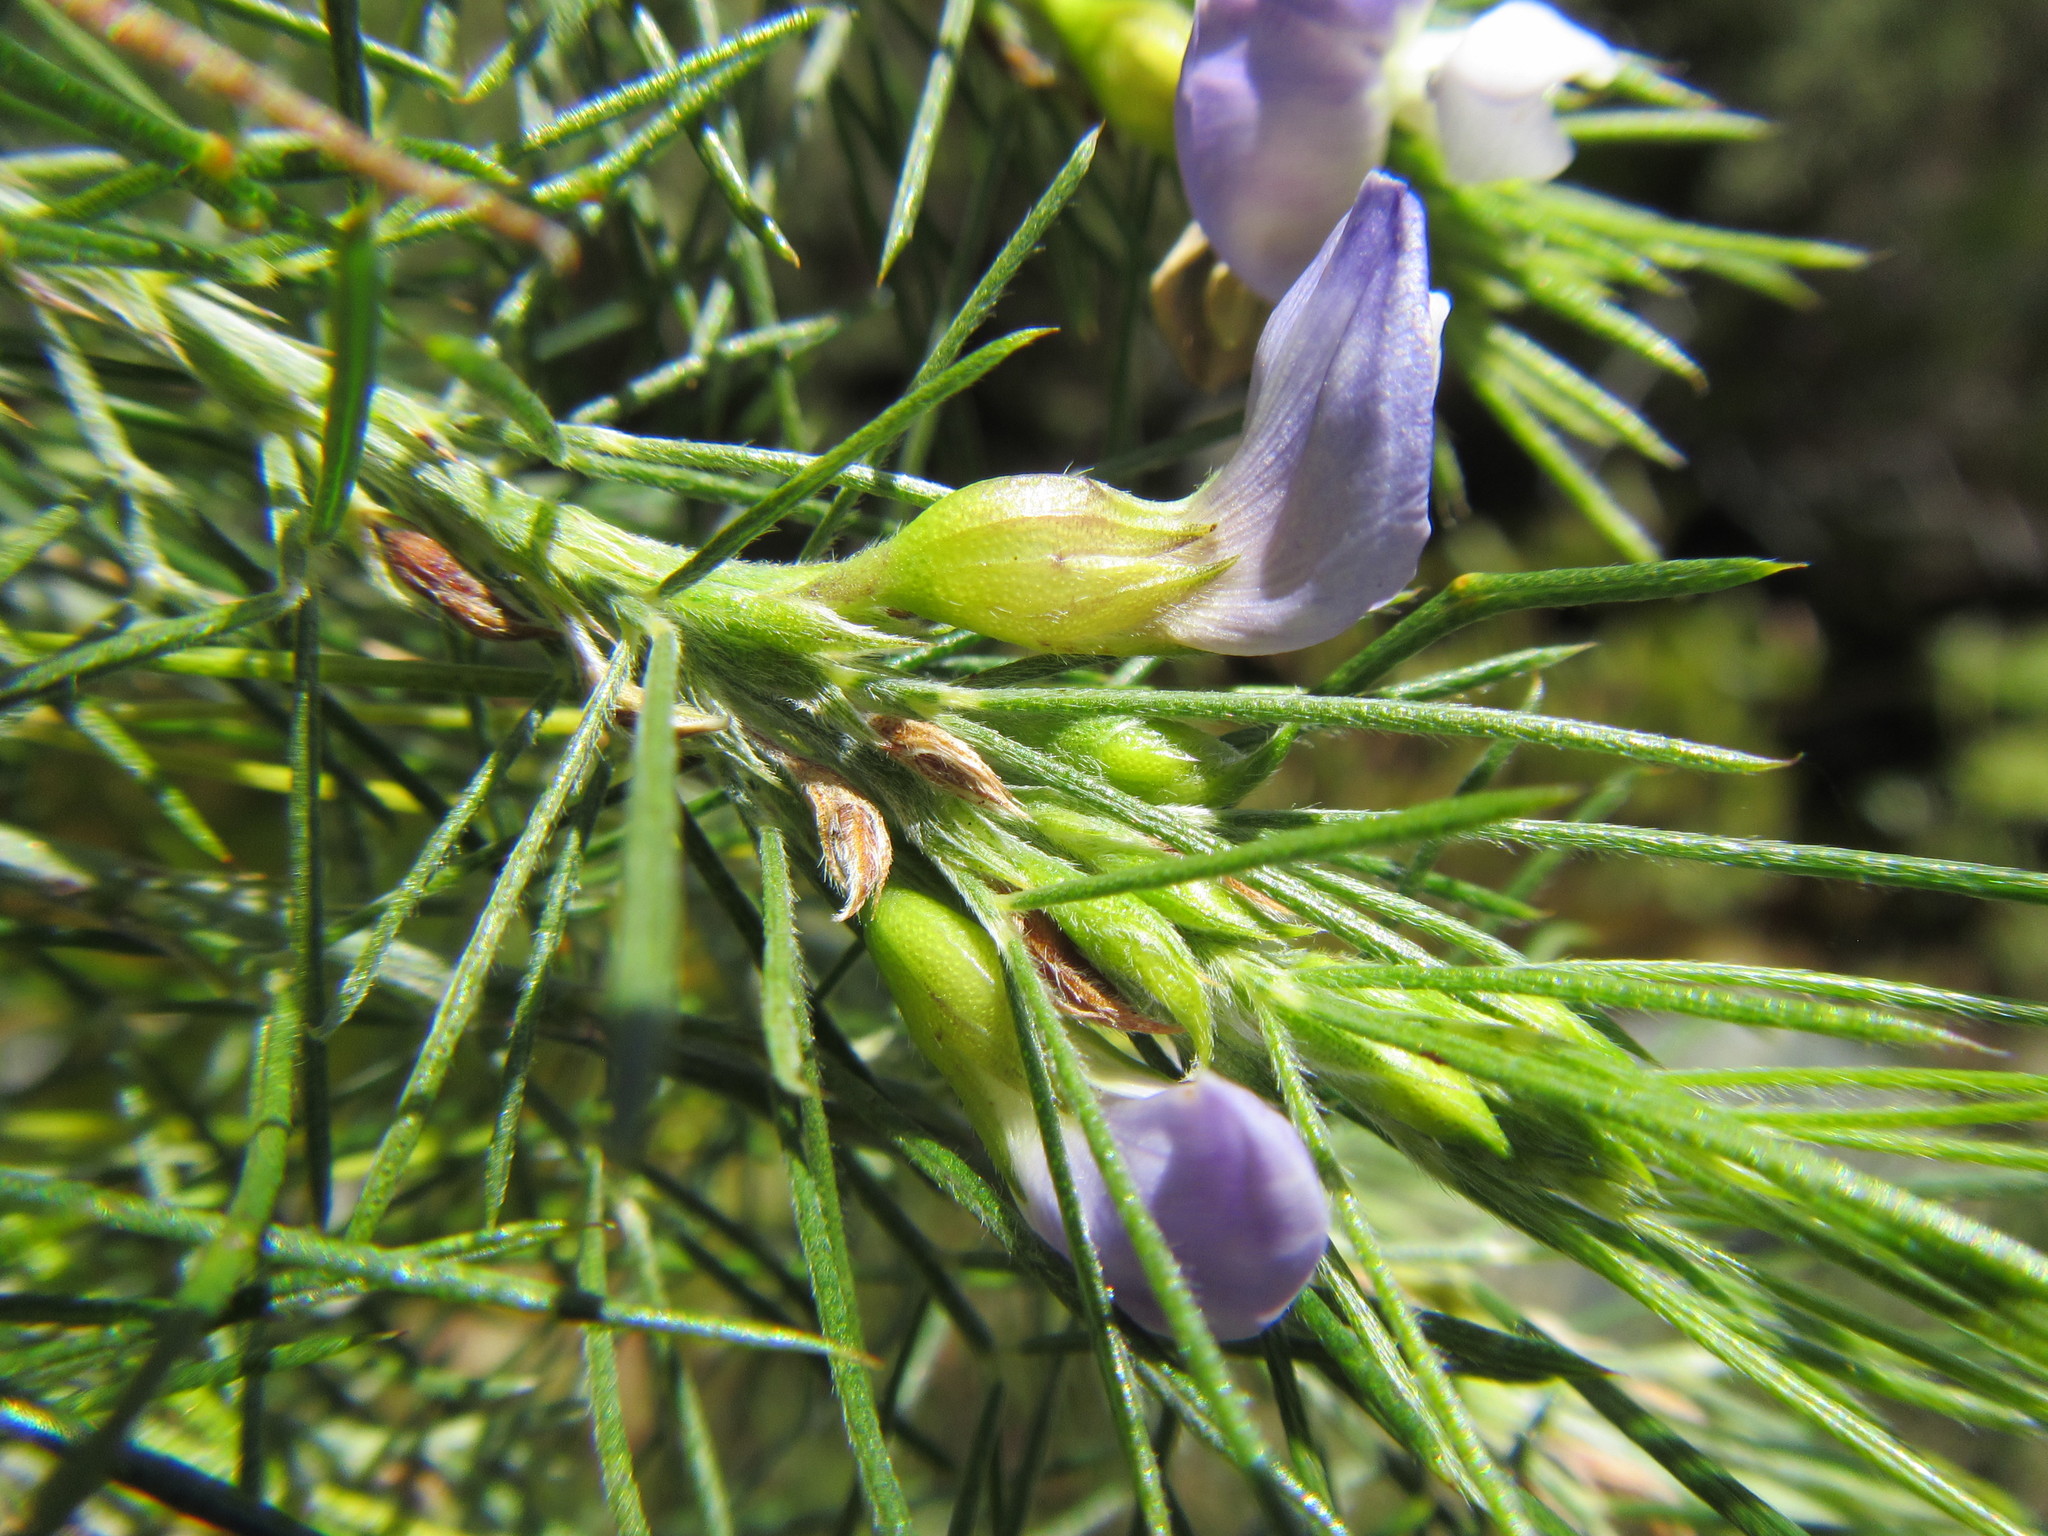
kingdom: Plantae
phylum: Tracheophyta
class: Magnoliopsida
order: Fabales
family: Fabaceae
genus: Psoralea
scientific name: Psoralea gigantea
